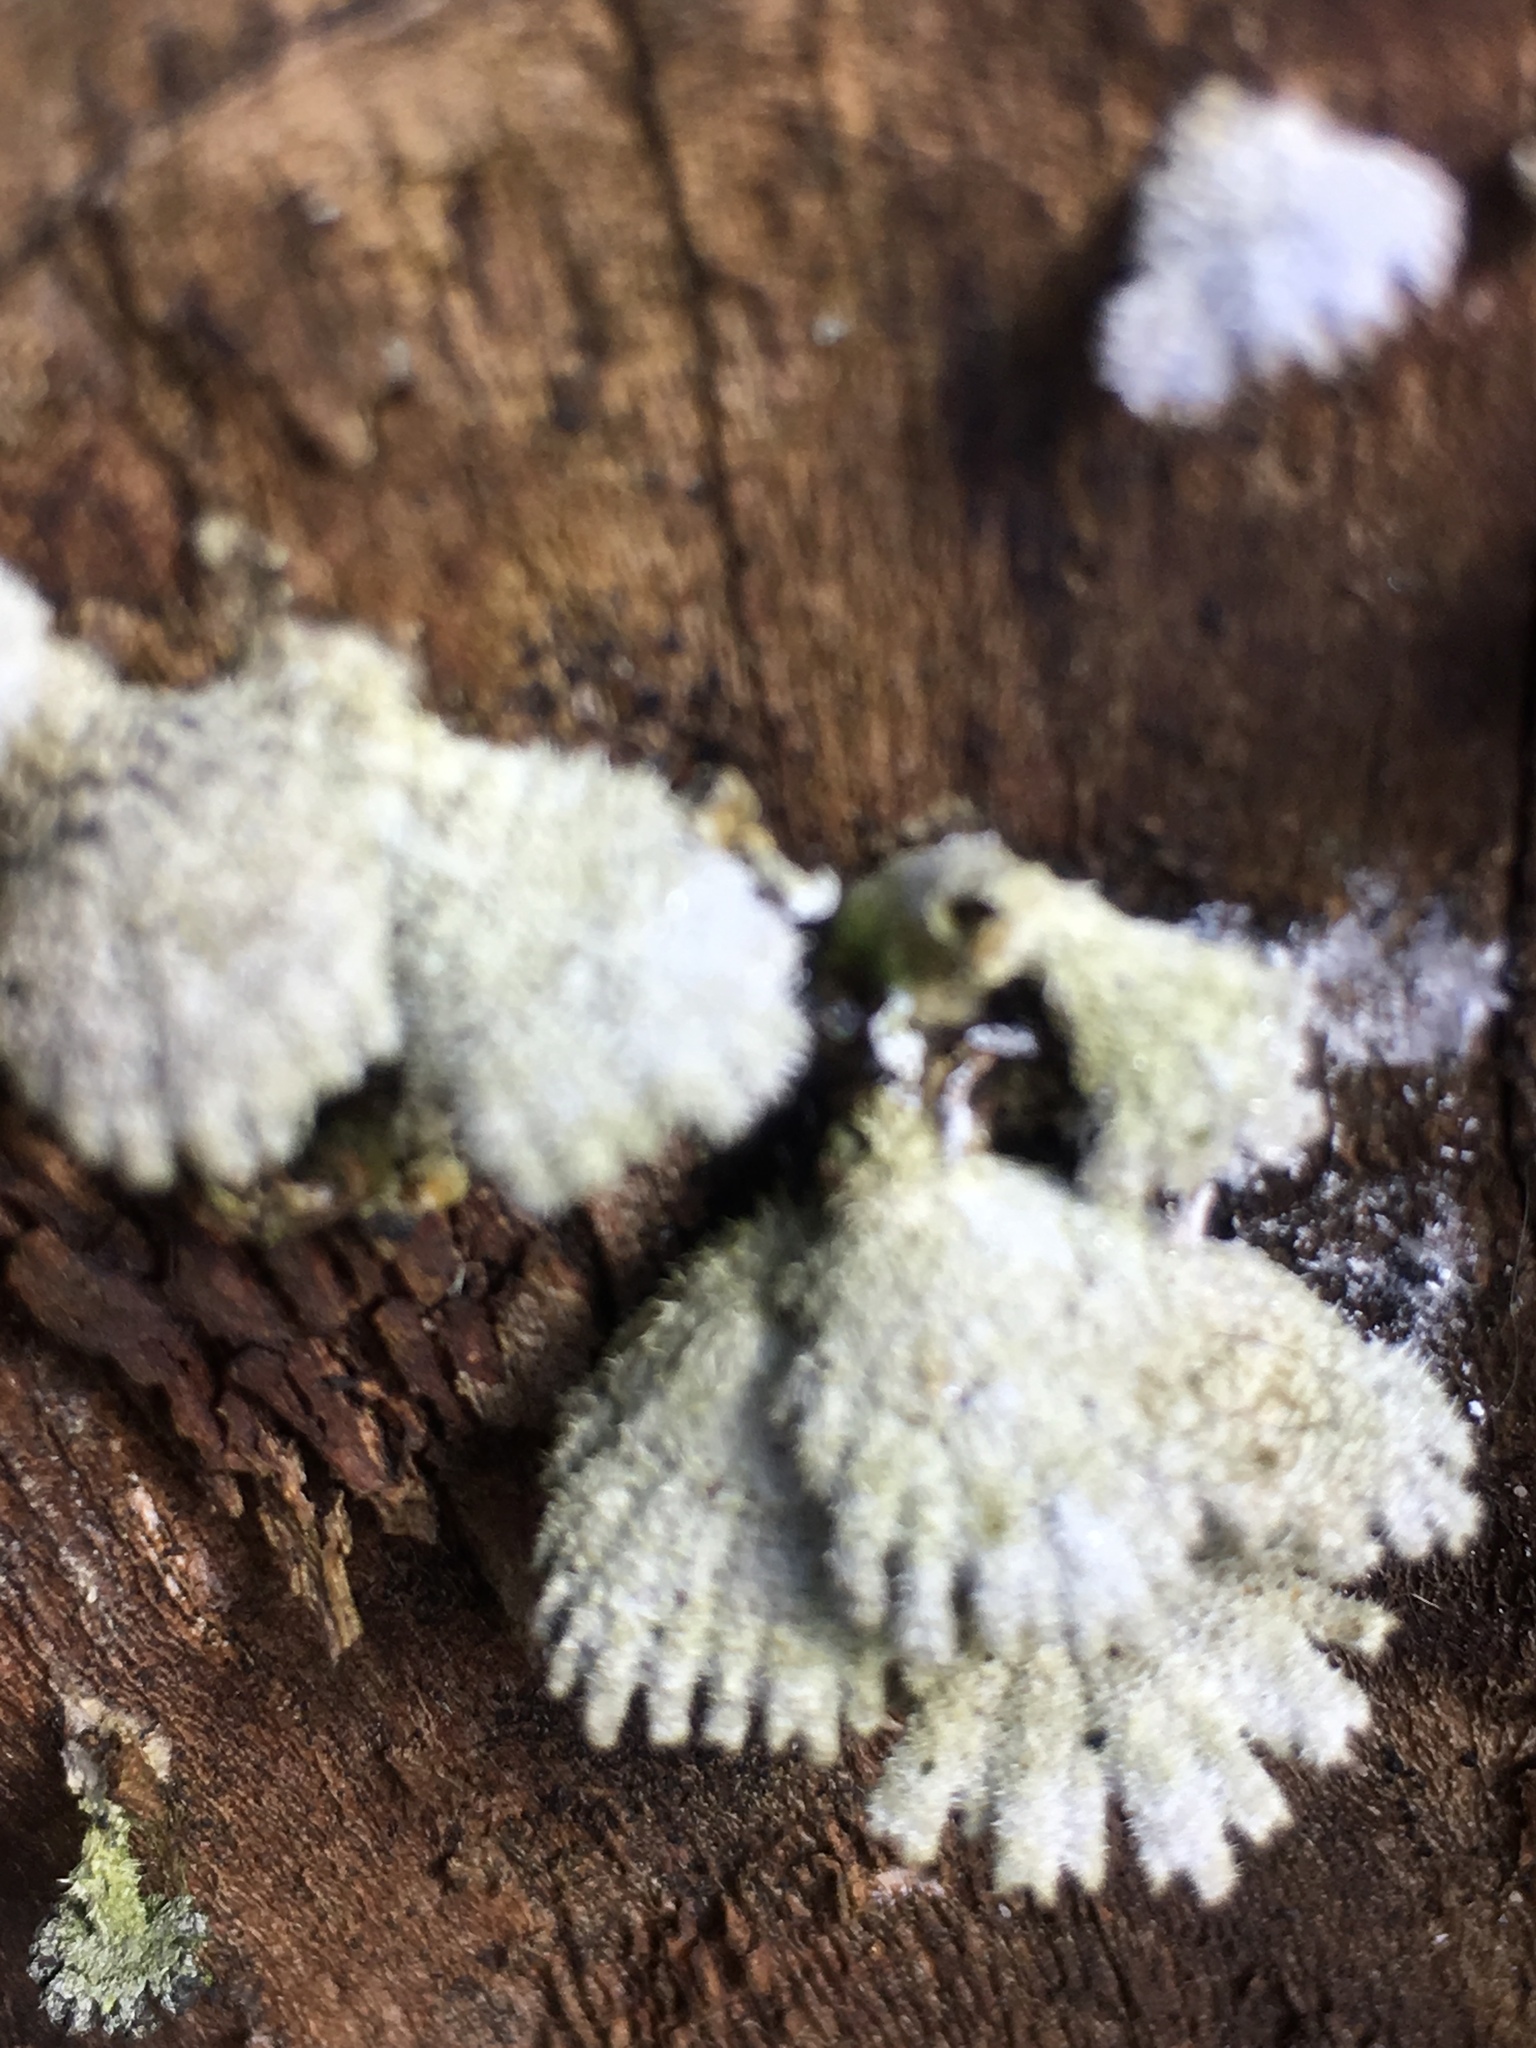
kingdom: Fungi
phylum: Basidiomycota
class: Agaricomycetes
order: Agaricales
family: Schizophyllaceae
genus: Schizophyllum
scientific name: Schizophyllum commune
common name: Common porecrust
